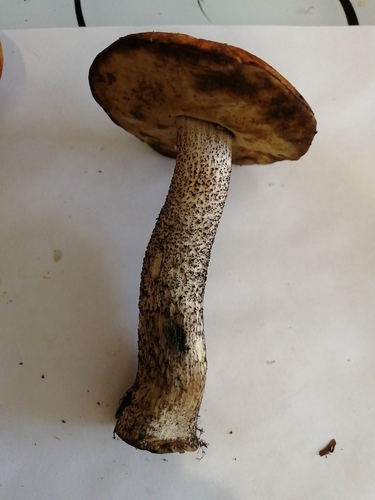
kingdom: Fungi
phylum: Basidiomycota
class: Agaricomycetes
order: Boletales
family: Boletaceae
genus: Leccinum
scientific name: Leccinum
